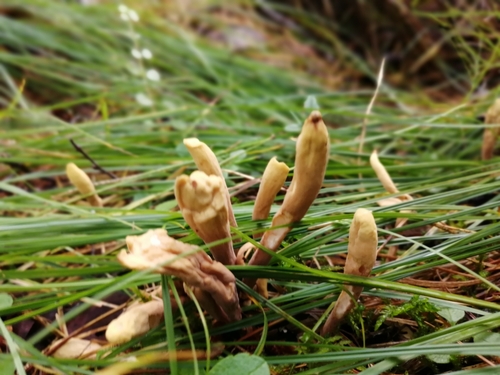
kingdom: Fungi
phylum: Basidiomycota
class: Agaricomycetes
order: Gomphales
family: Clavariadelphaceae
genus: Clavariadelphus
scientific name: Clavariadelphus
